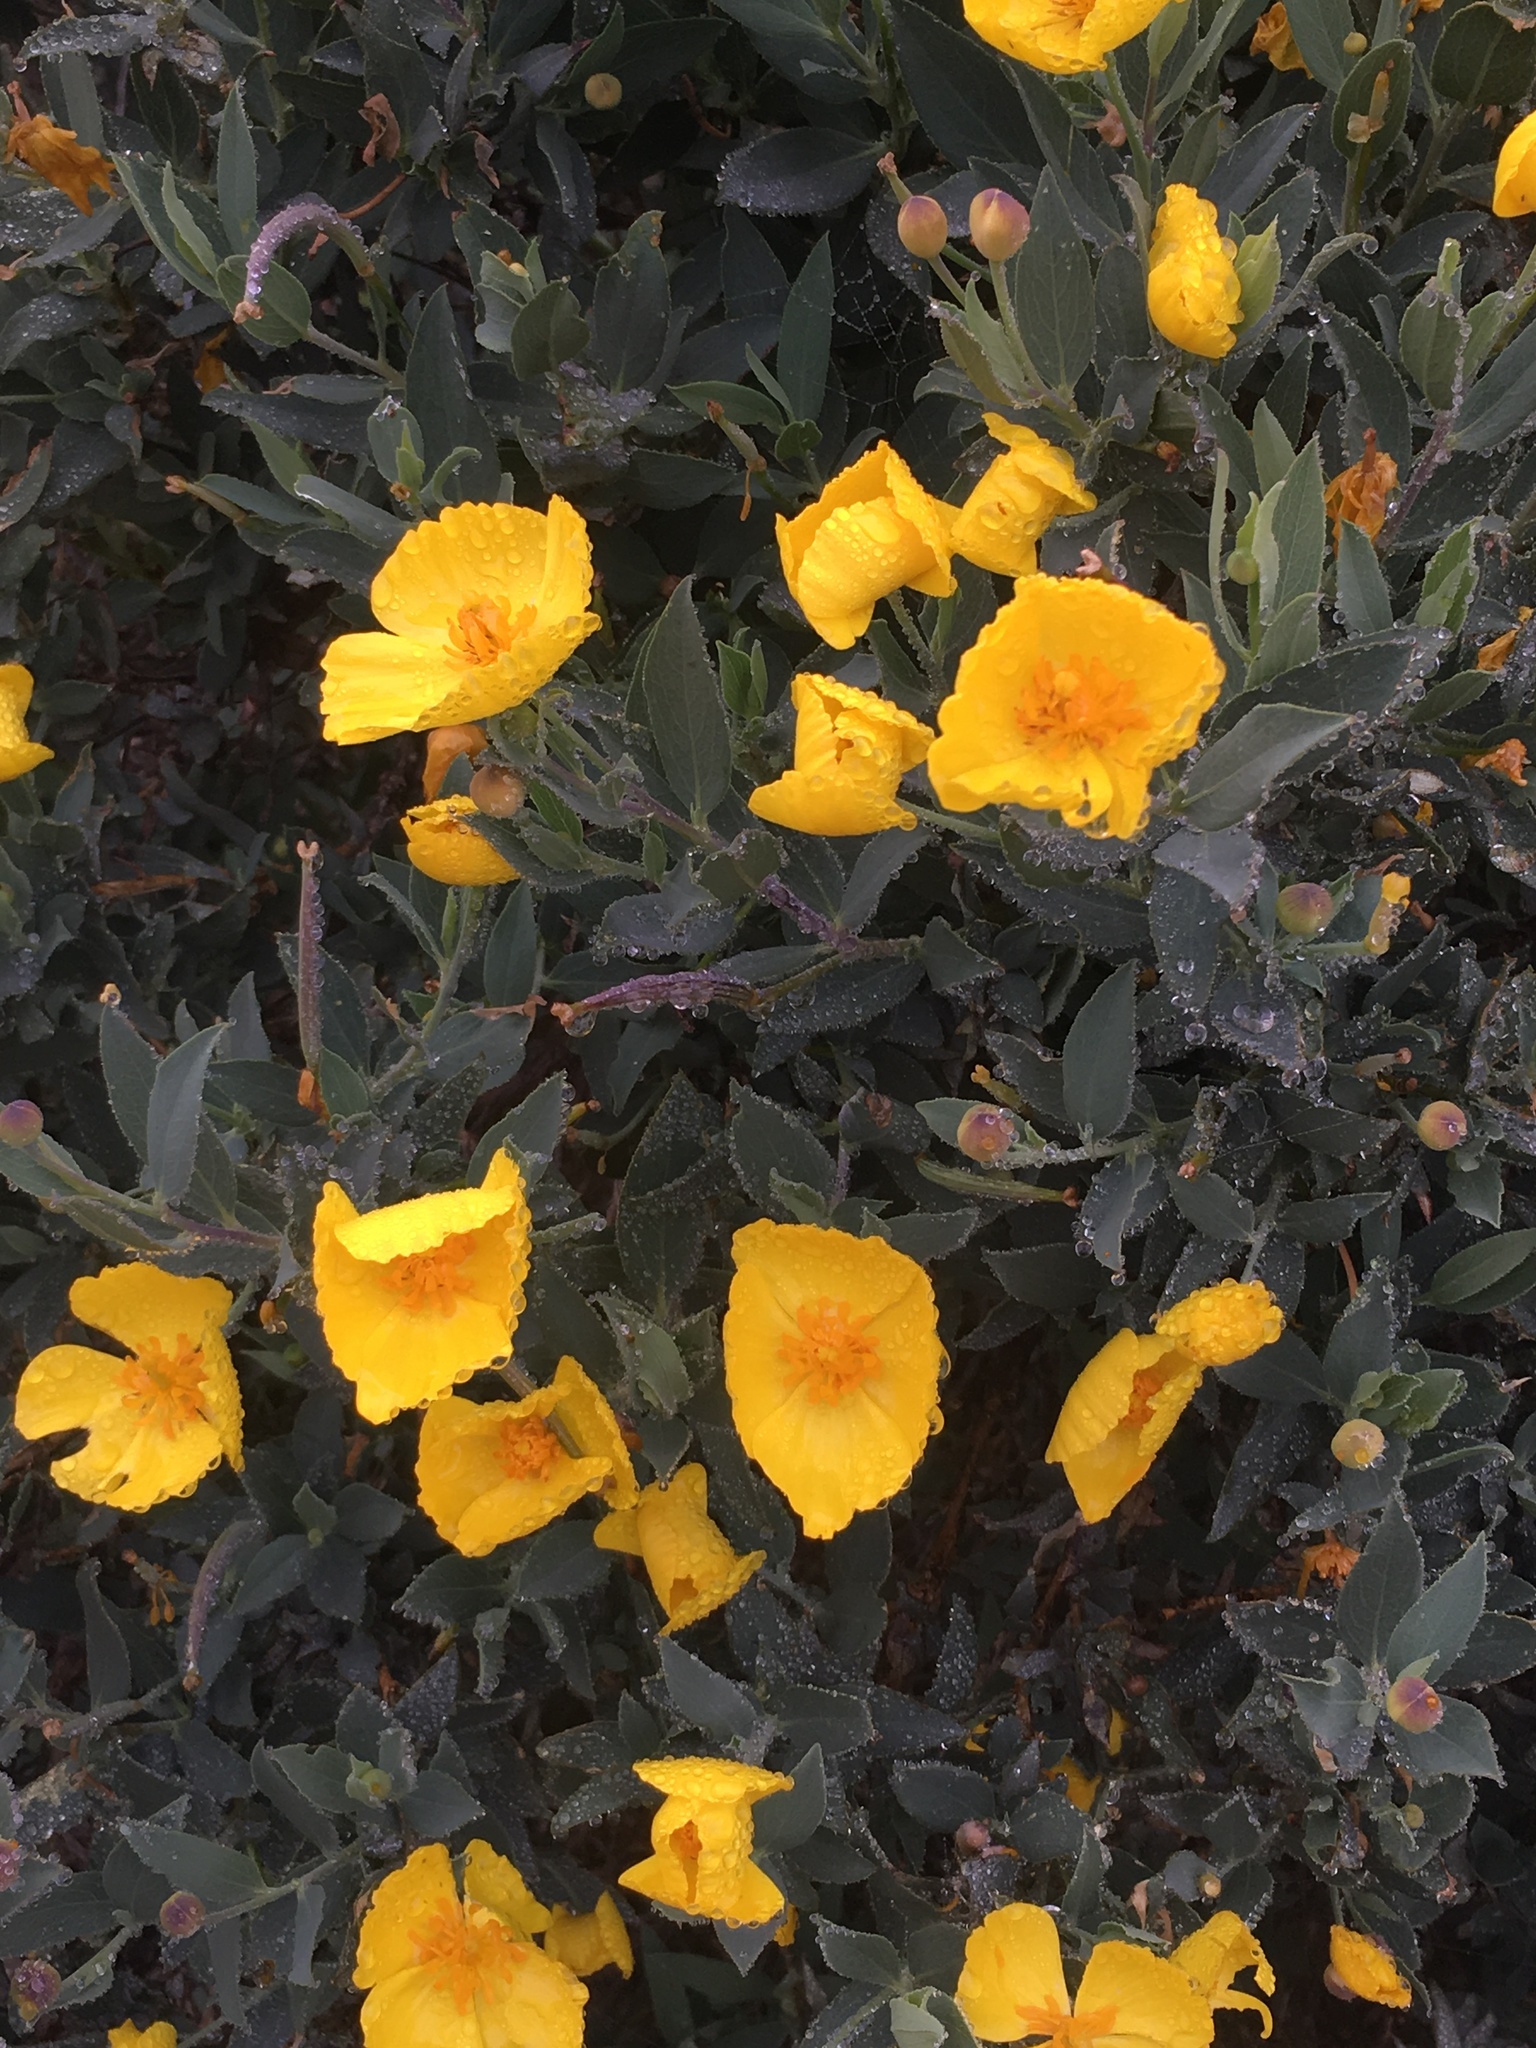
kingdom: Plantae
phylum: Tracheophyta
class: Magnoliopsida
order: Ranunculales
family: Papaveraceae
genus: Dendromecon
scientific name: Dendromecon rigida
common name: Tree poppy
